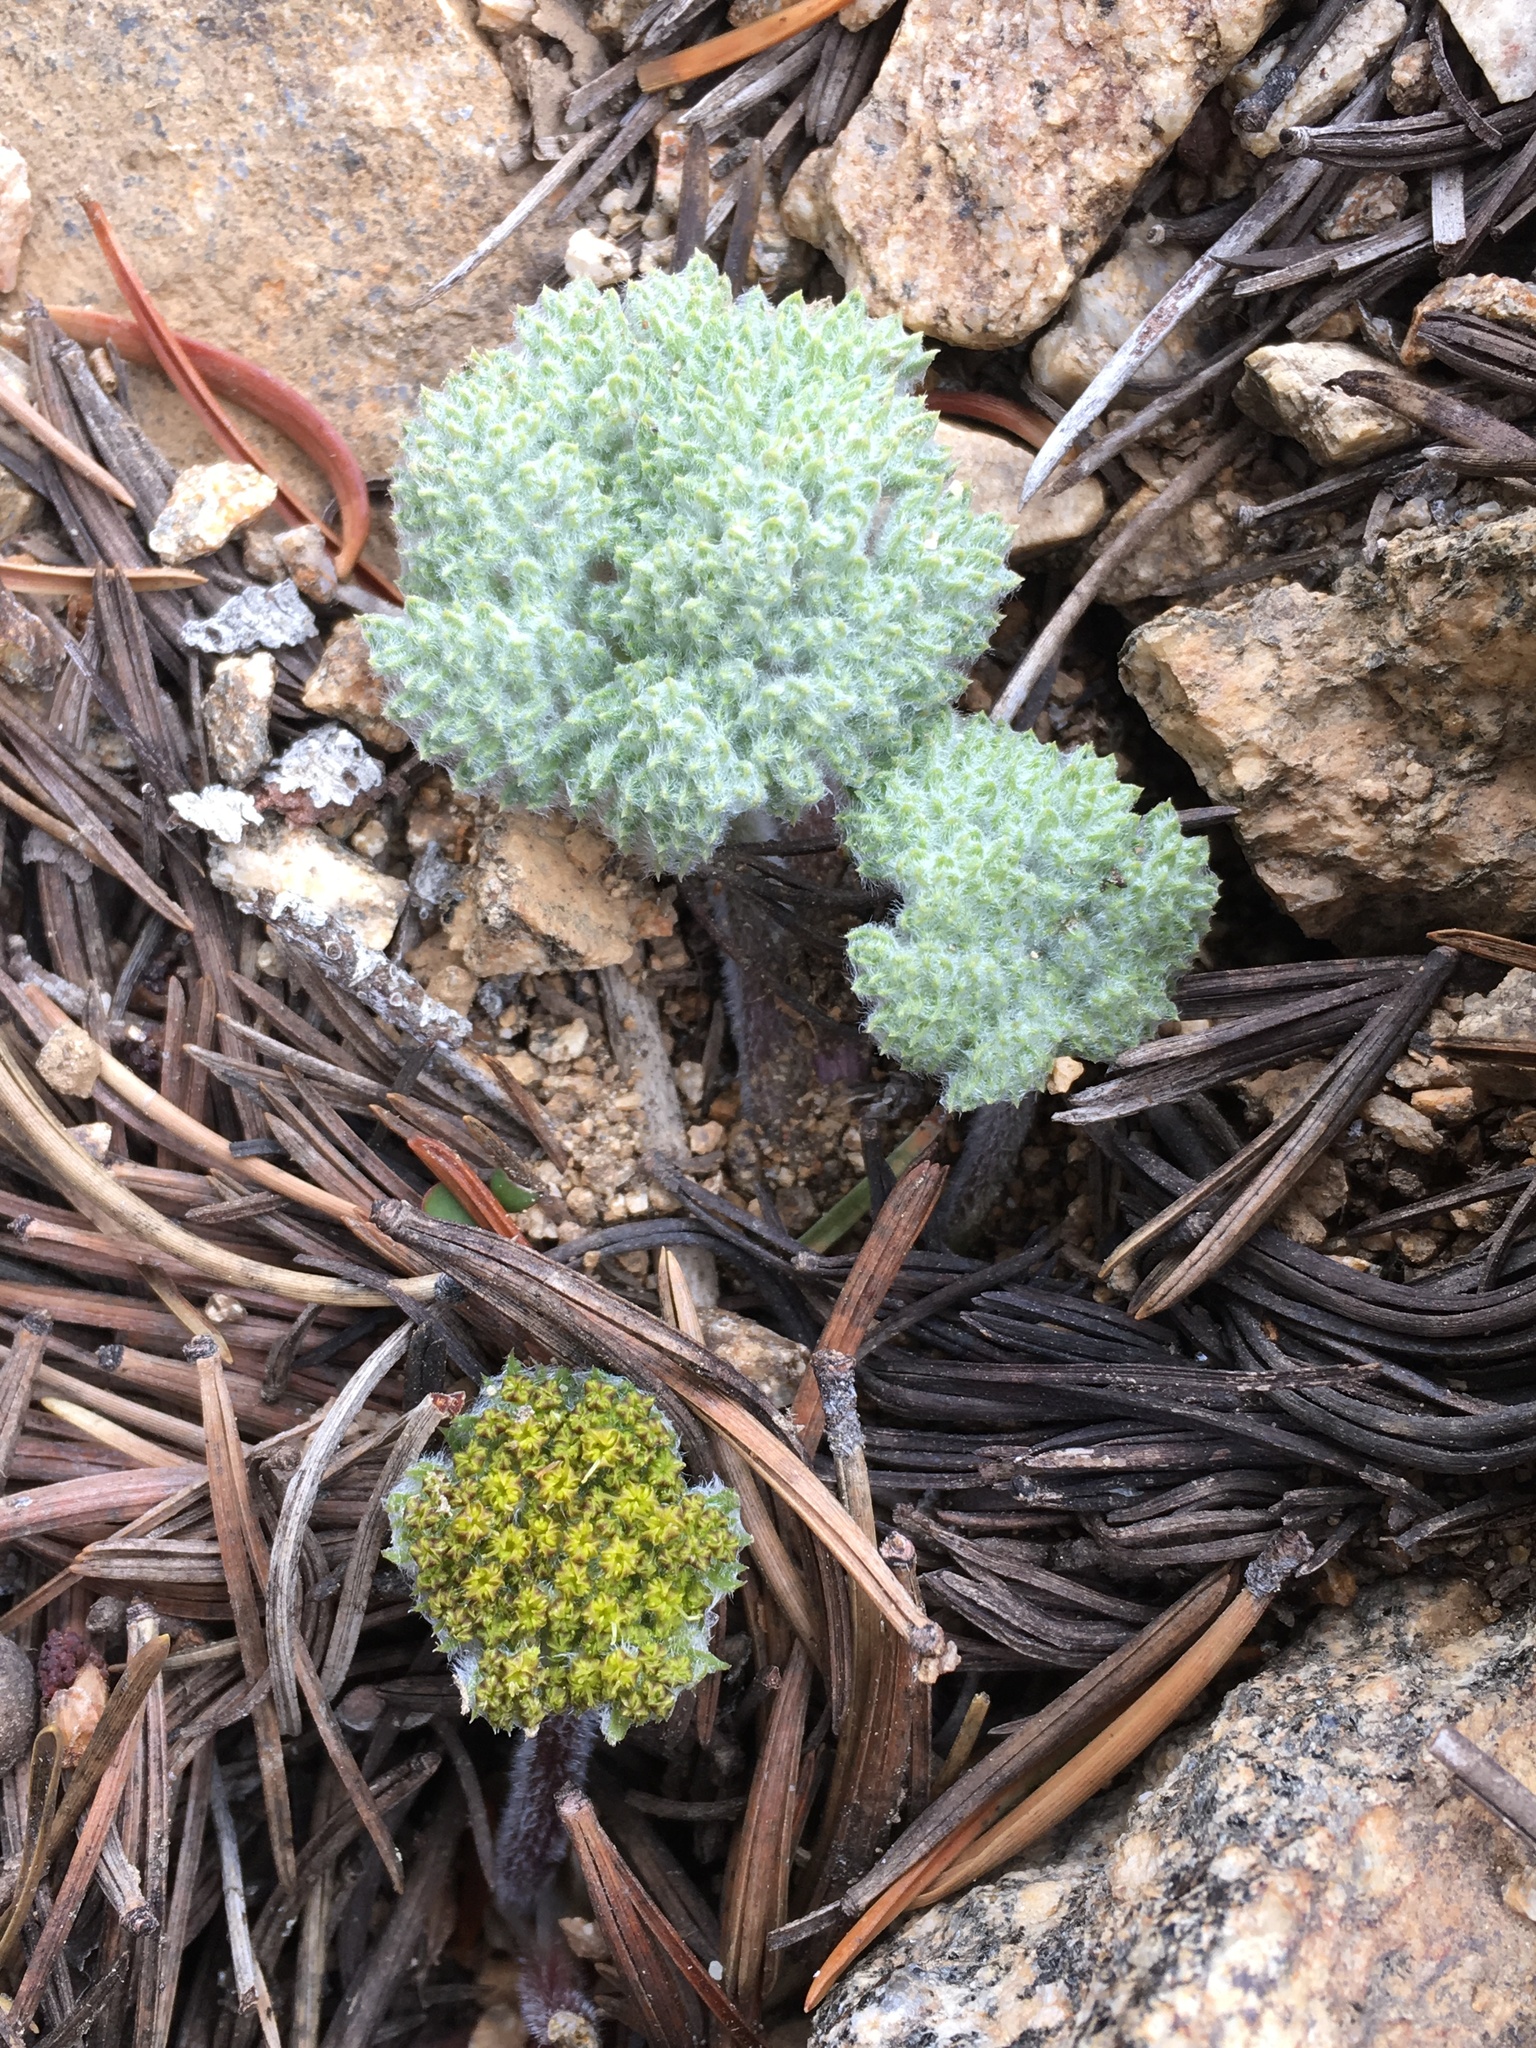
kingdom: Plantae
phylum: Tracheophyta
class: Magnoliopsida
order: Apiales
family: Apiaceae
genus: Oreonana
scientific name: Oreonana vestita
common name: Woolly mountain-parsley
